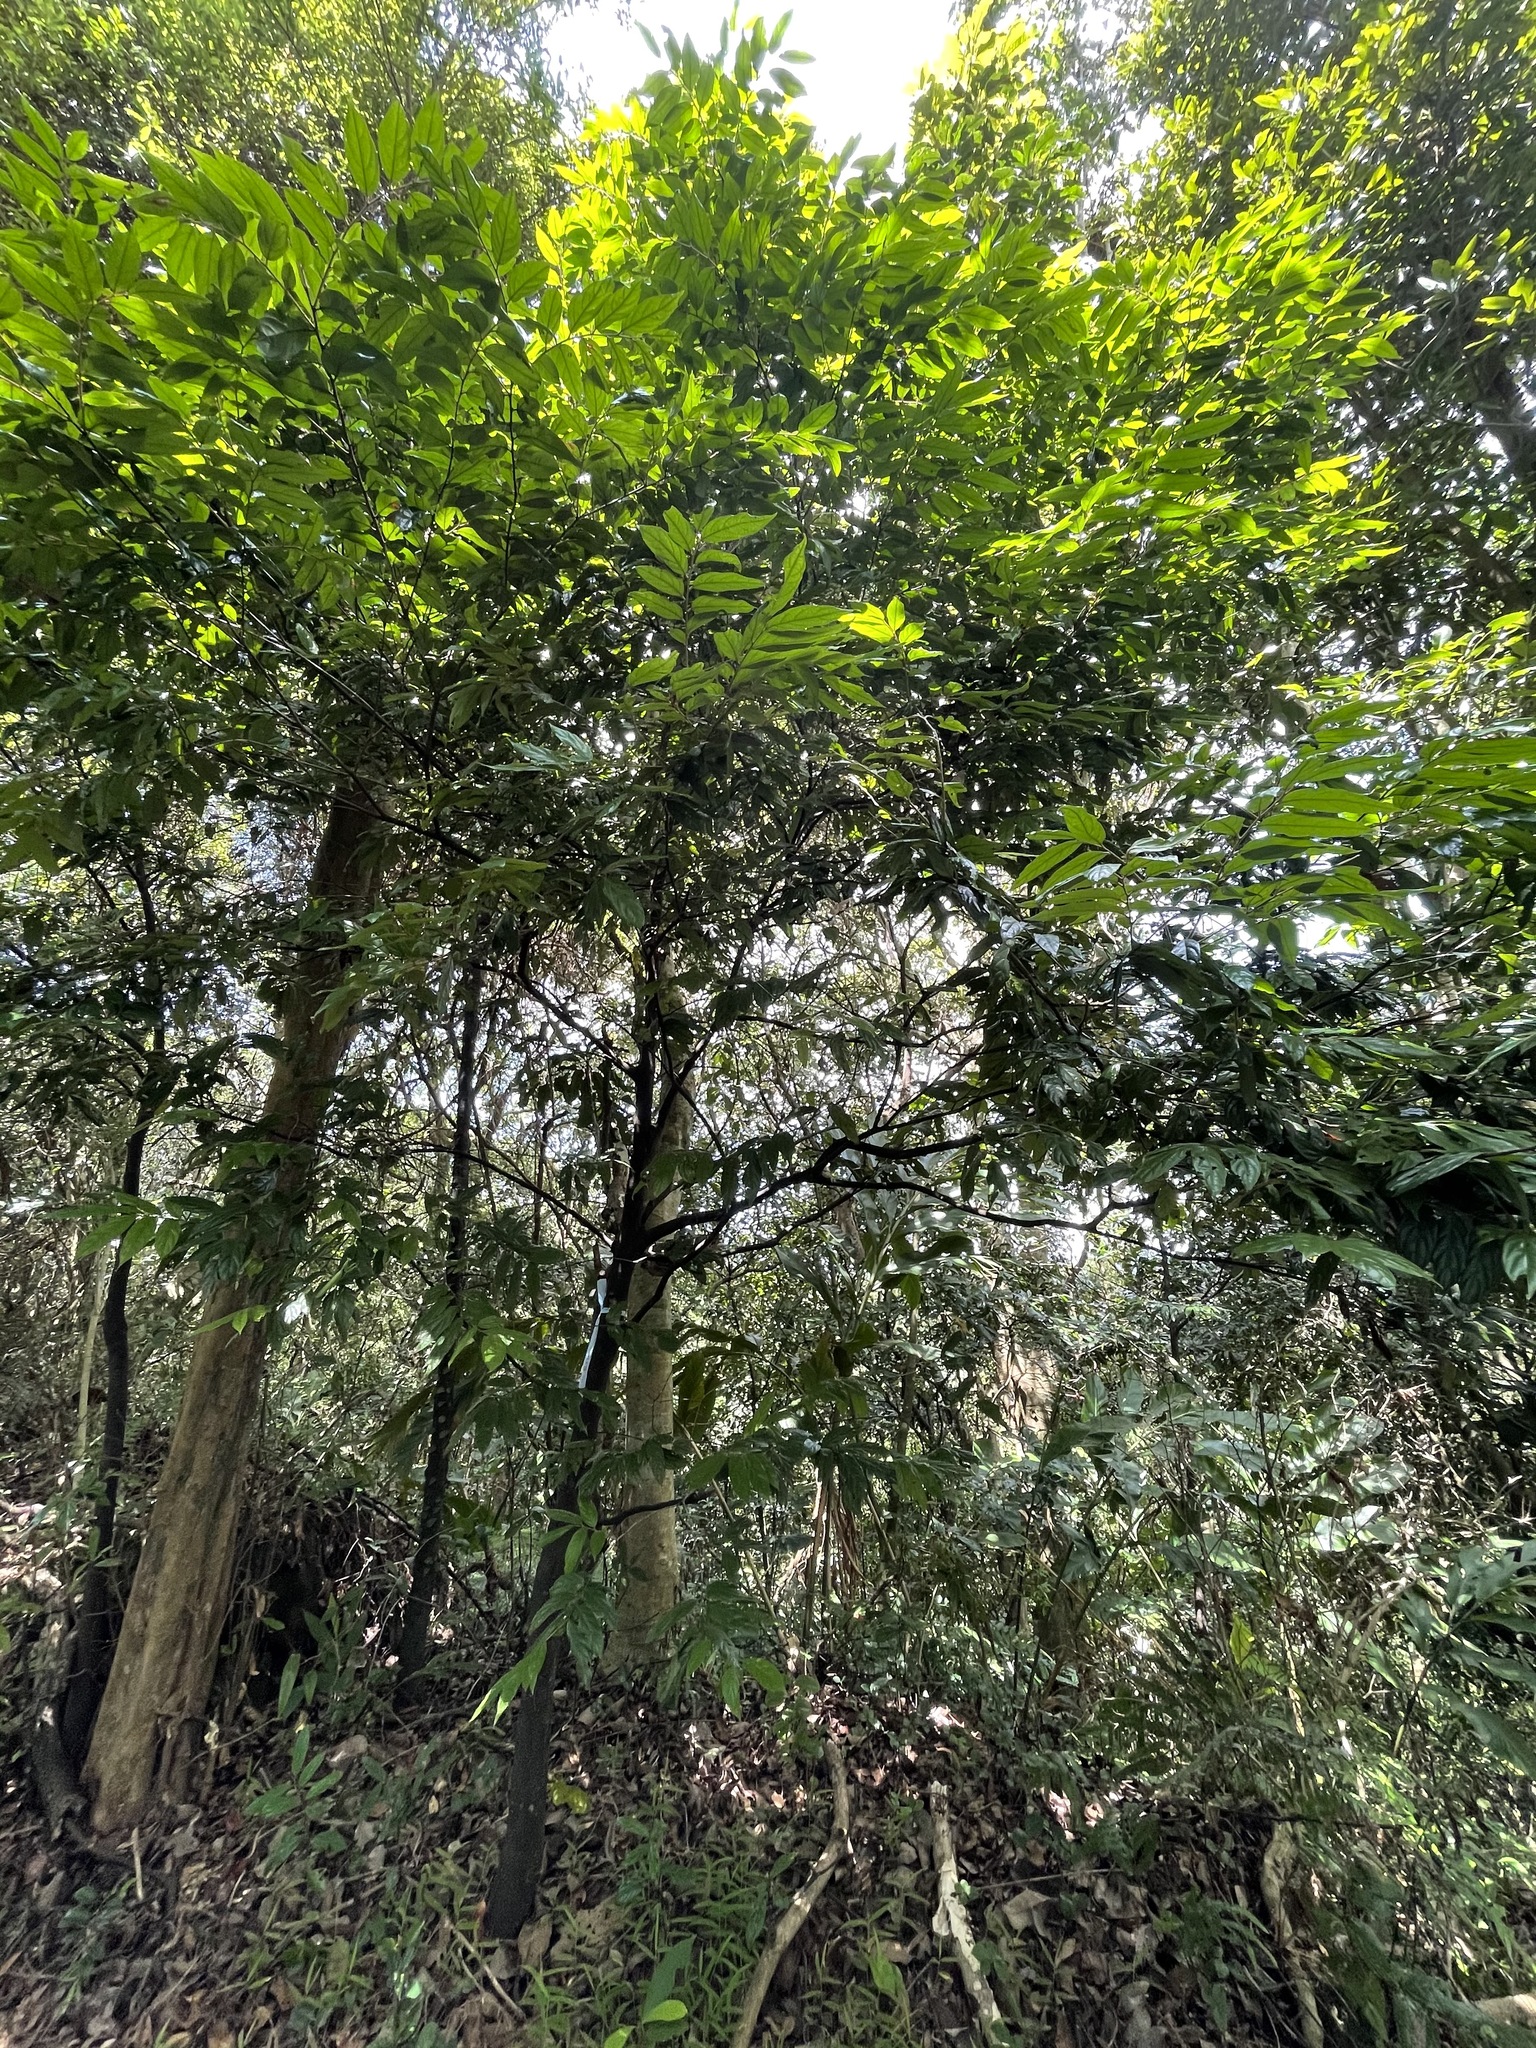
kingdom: Plantae
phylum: Tracheophyta
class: Magnoliopsida
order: Ericales
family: Ebenaceae
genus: Diospyros
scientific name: Diospyros eriantha
